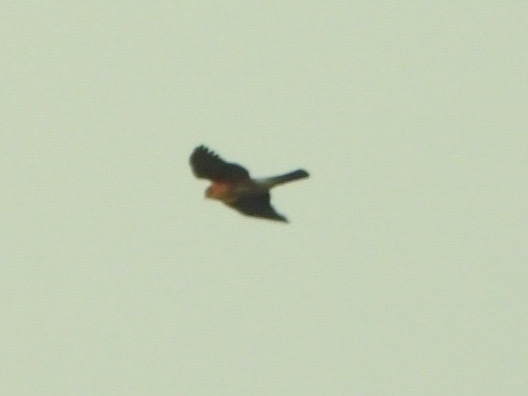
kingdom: Animalia
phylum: Chordata
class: Aves
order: Accipitriformes
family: Accipitridae
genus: Accipiter
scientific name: Accipiter striatus
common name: Sharp-shinned hawk
